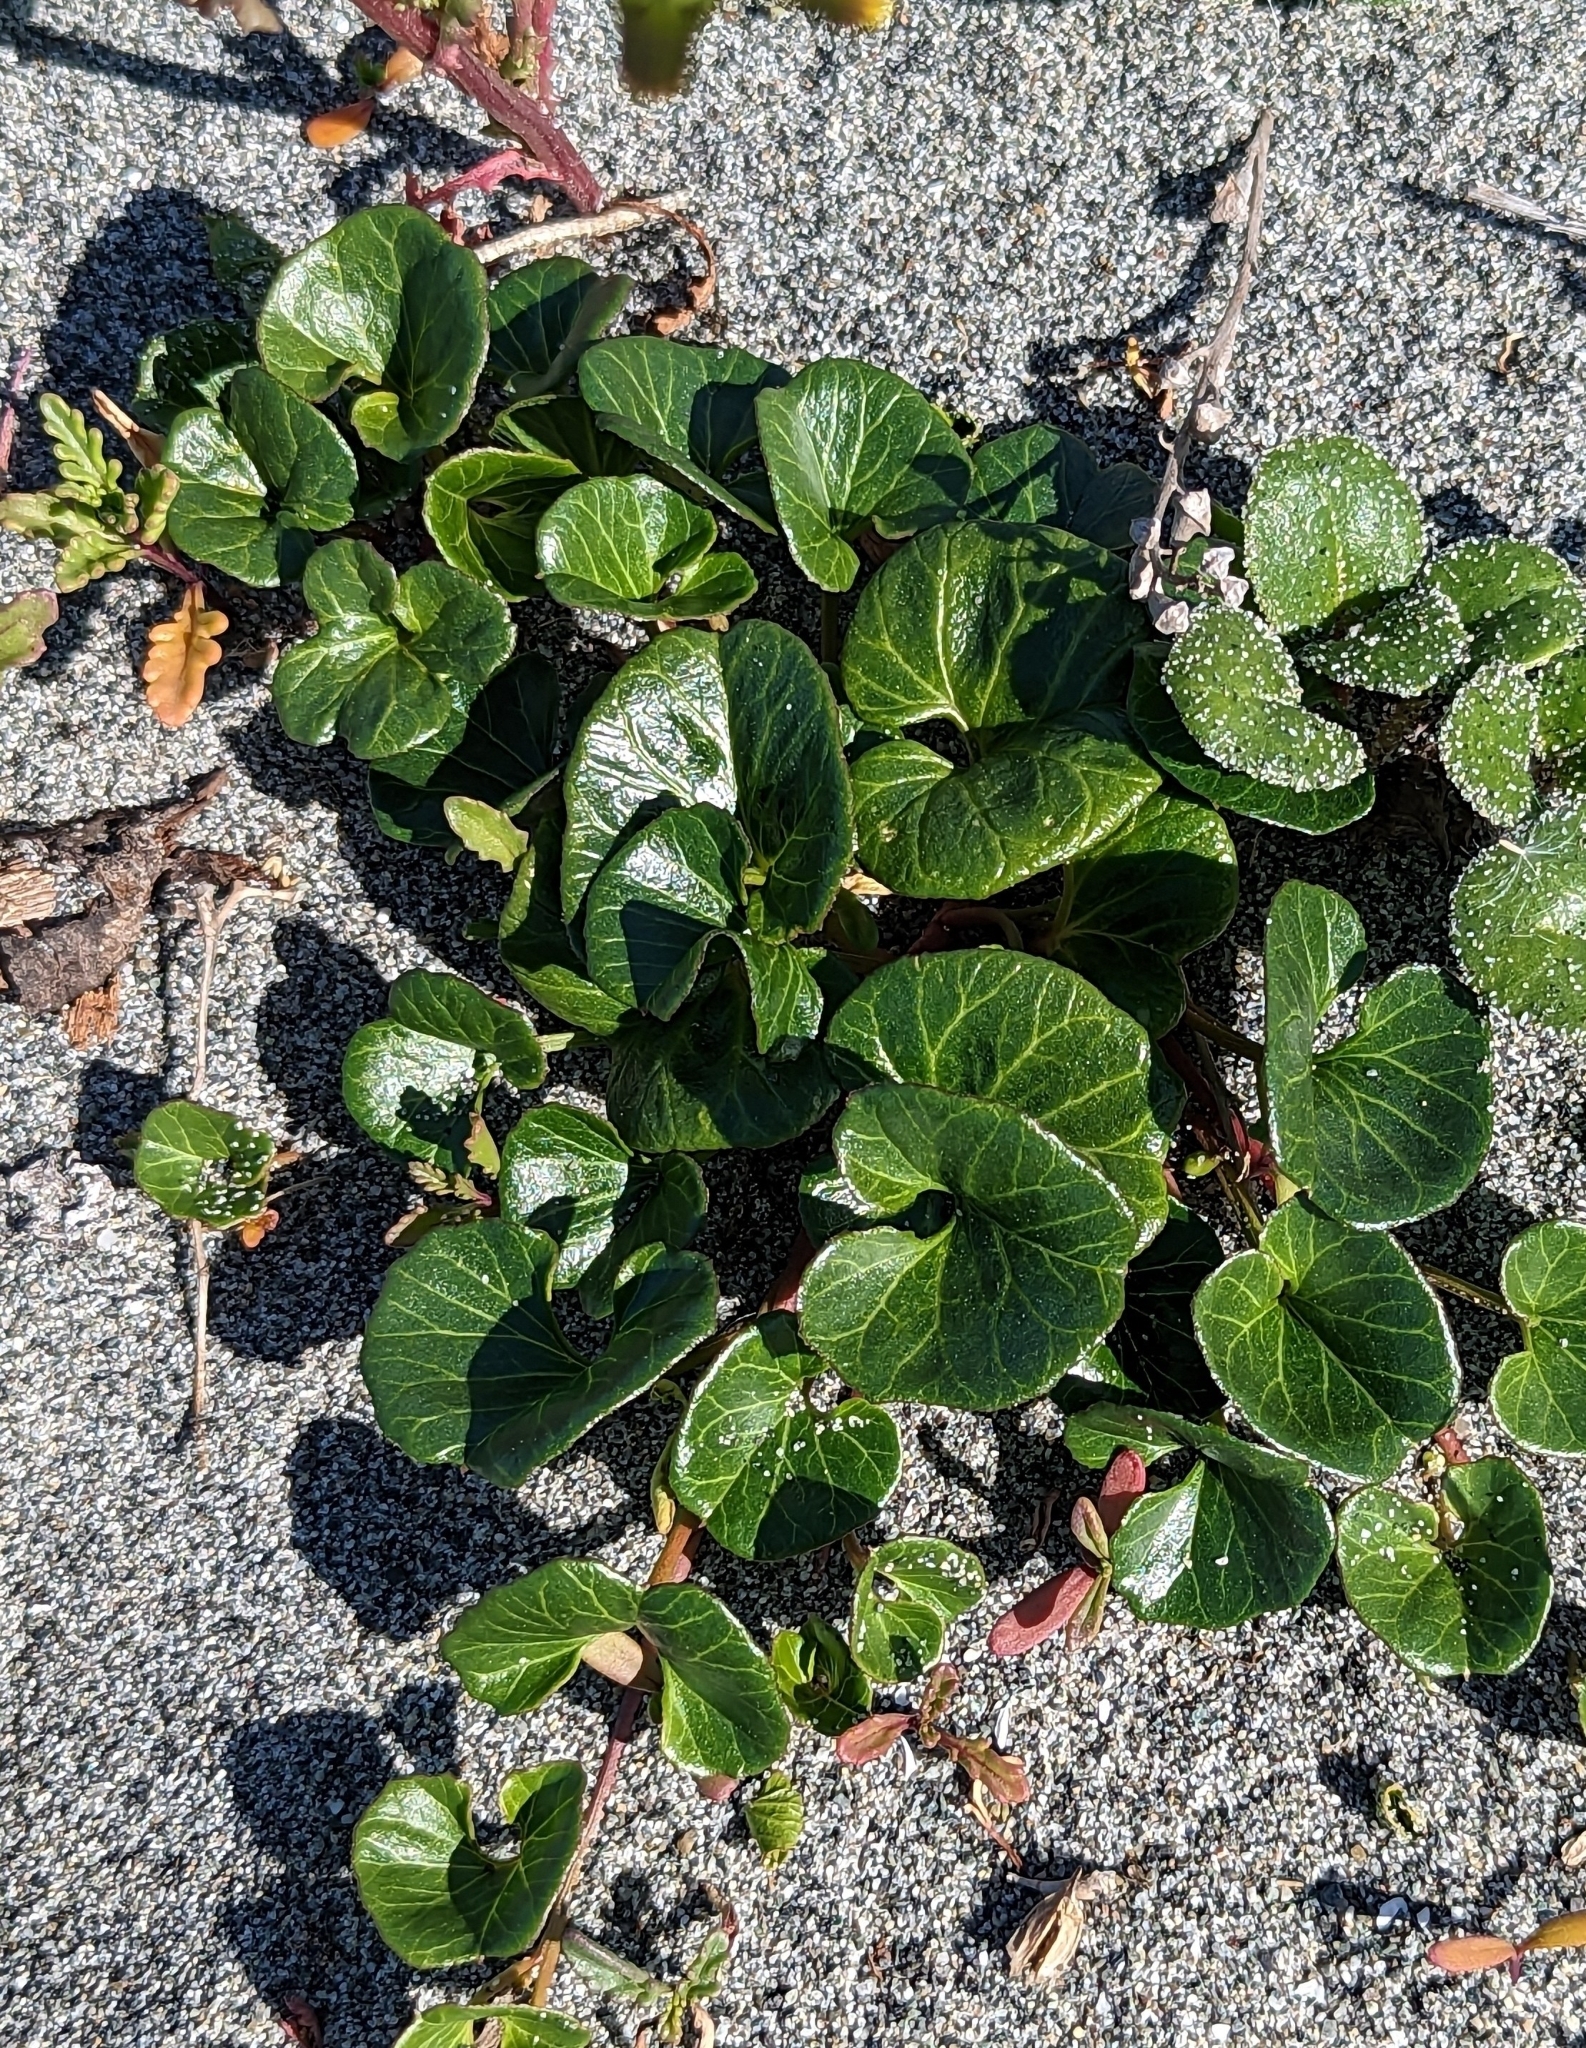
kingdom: Plantae
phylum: Tracheophyta
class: Magnoliopsida
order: Solanales
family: Convolvulaceae
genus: Calystegia
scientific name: Calystegia soldanella
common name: Sea bindweed
